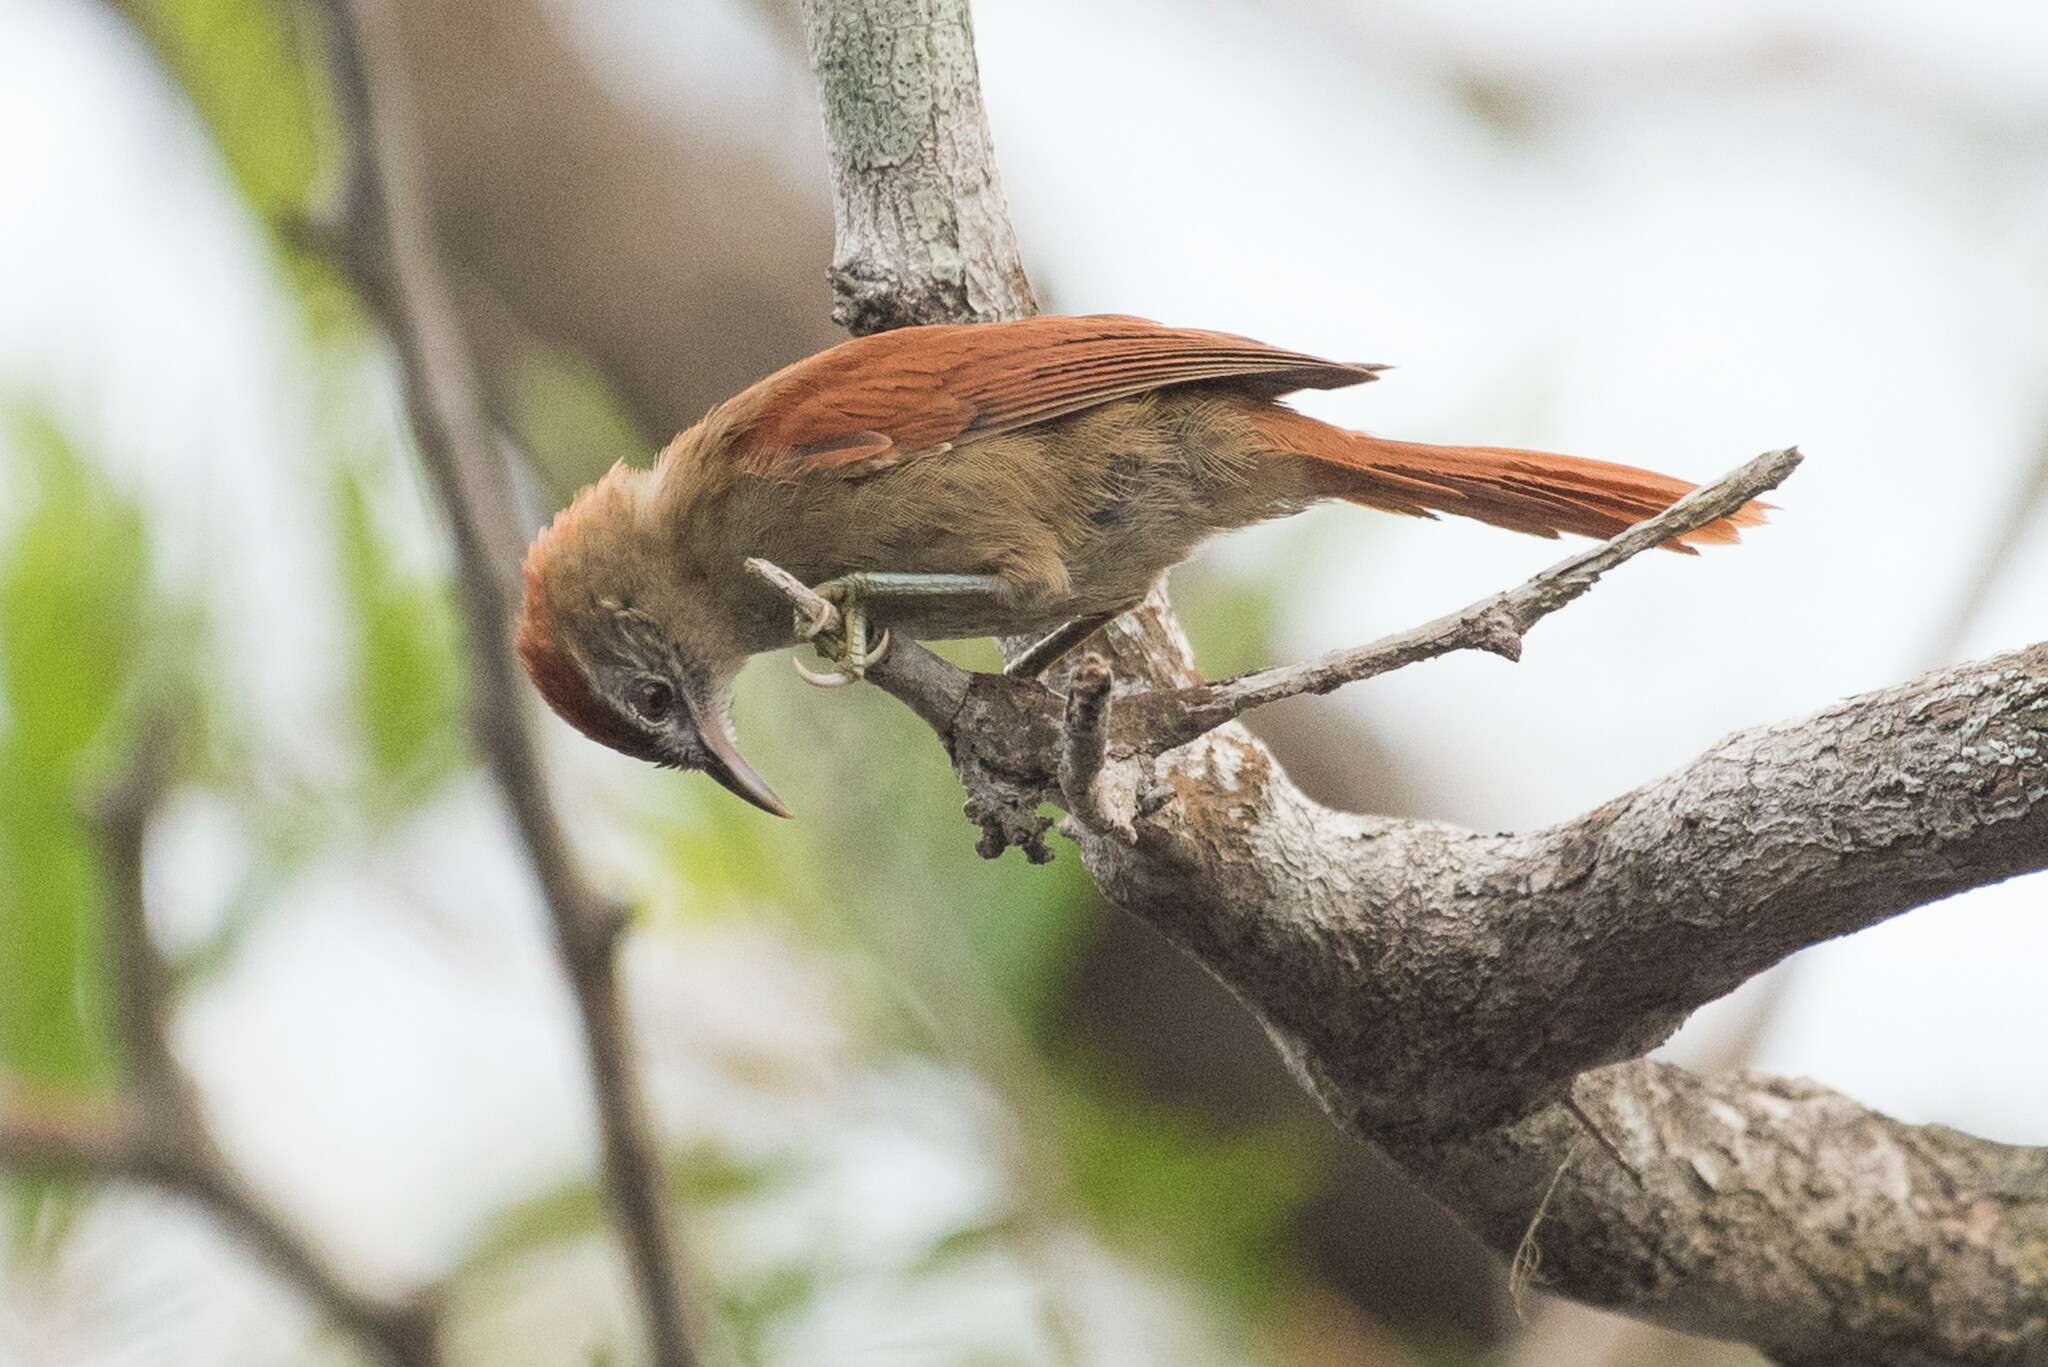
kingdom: Animalia
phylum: Chordata
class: Aves
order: Passeriformes
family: Furnariidae
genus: Cranioleuca
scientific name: Cranioleuca vulpina
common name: Rusty-backed spinetail
